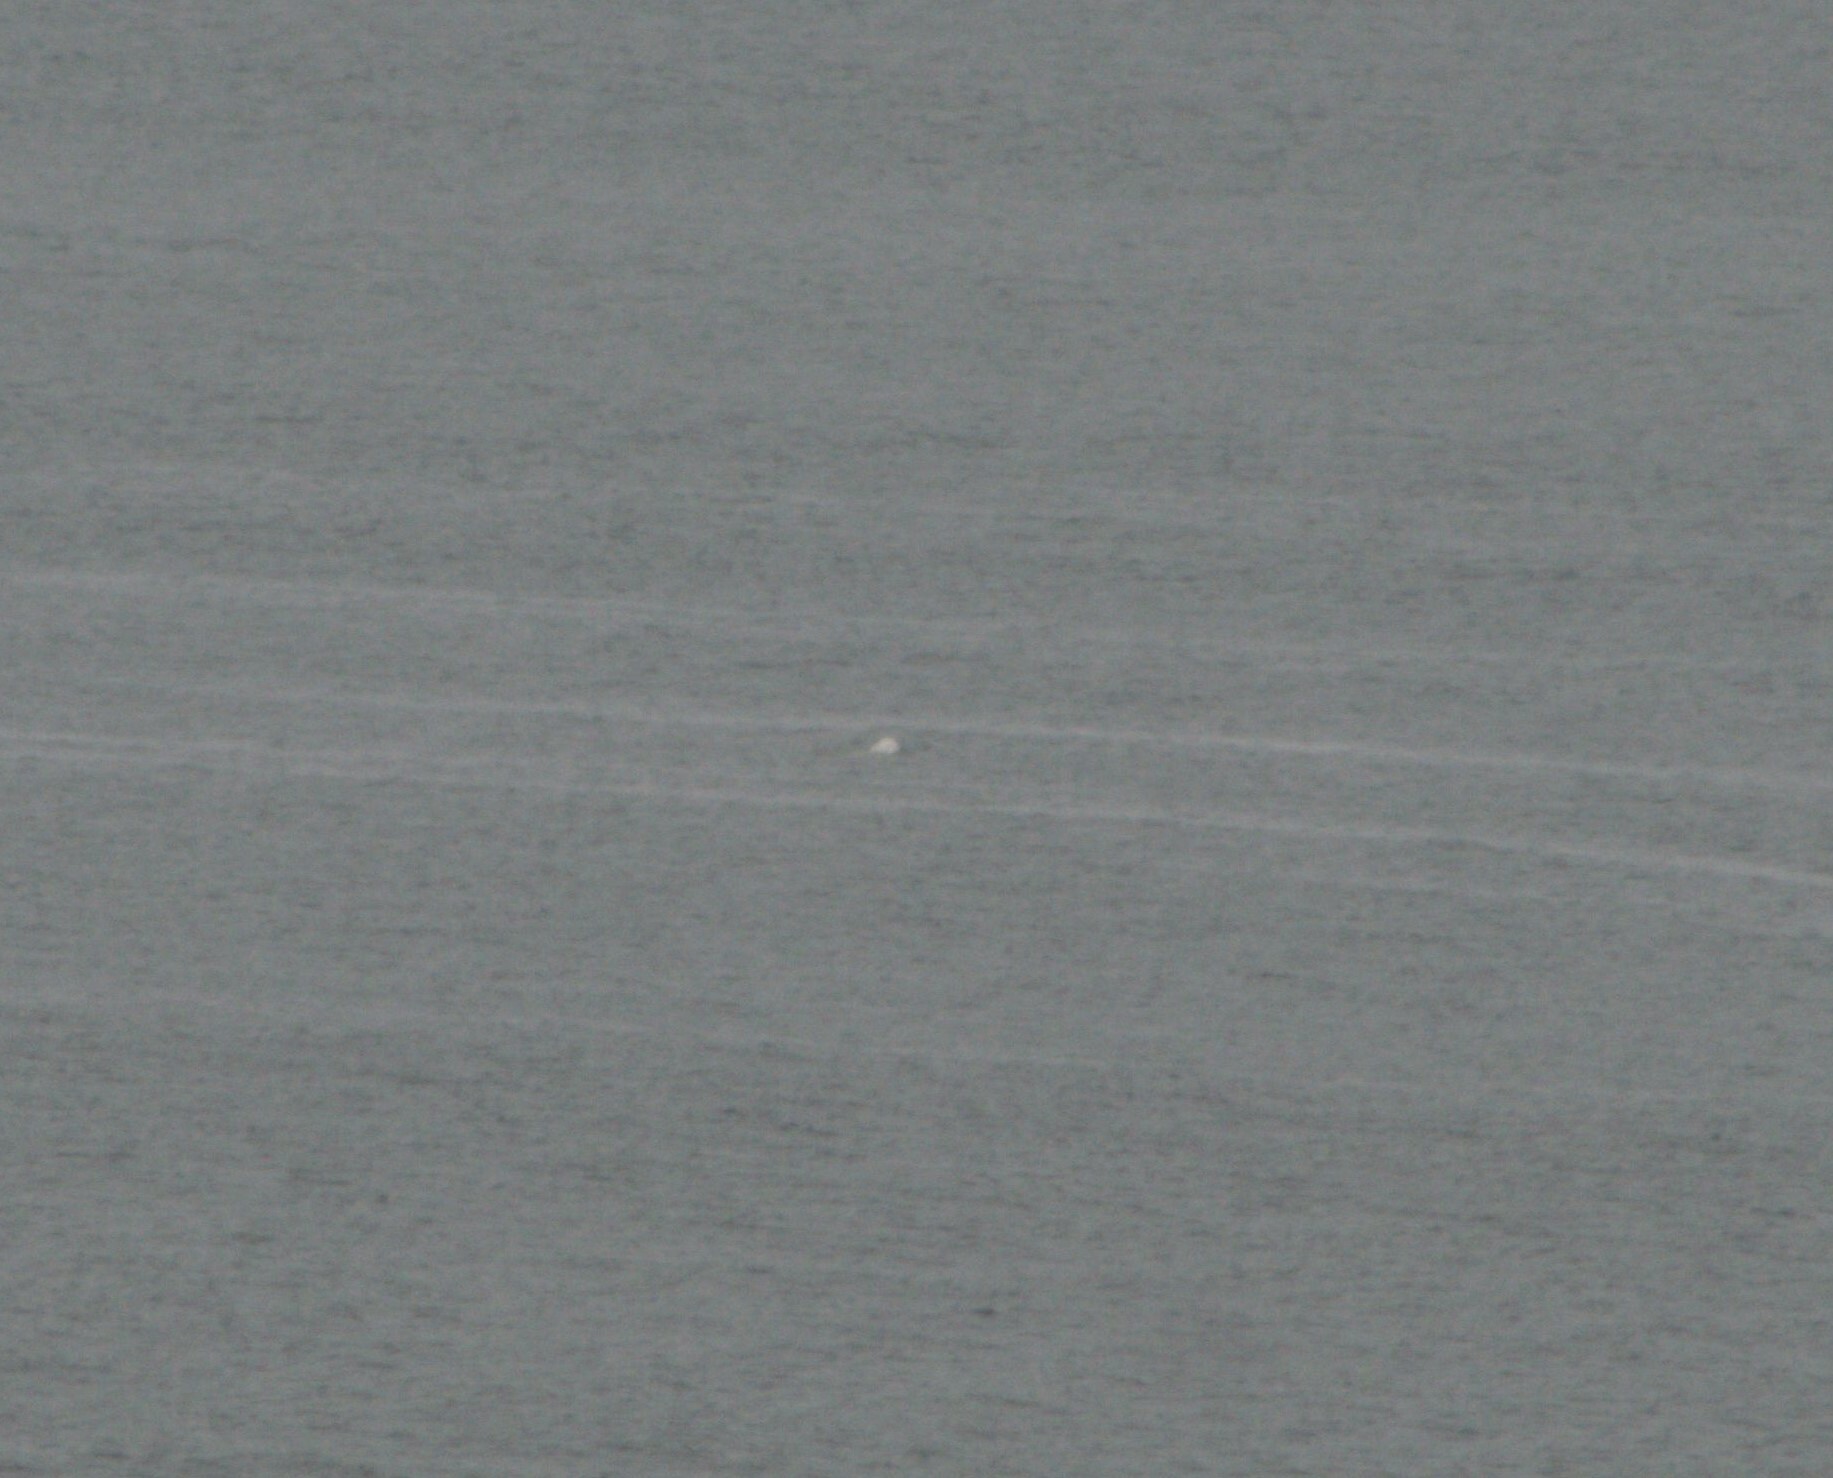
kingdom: Animalia
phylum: Chordata
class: Mammalia
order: Cetacea
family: Monodontidae
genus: Delphinapterus
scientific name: Delphinapterus leucas
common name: Beluga
